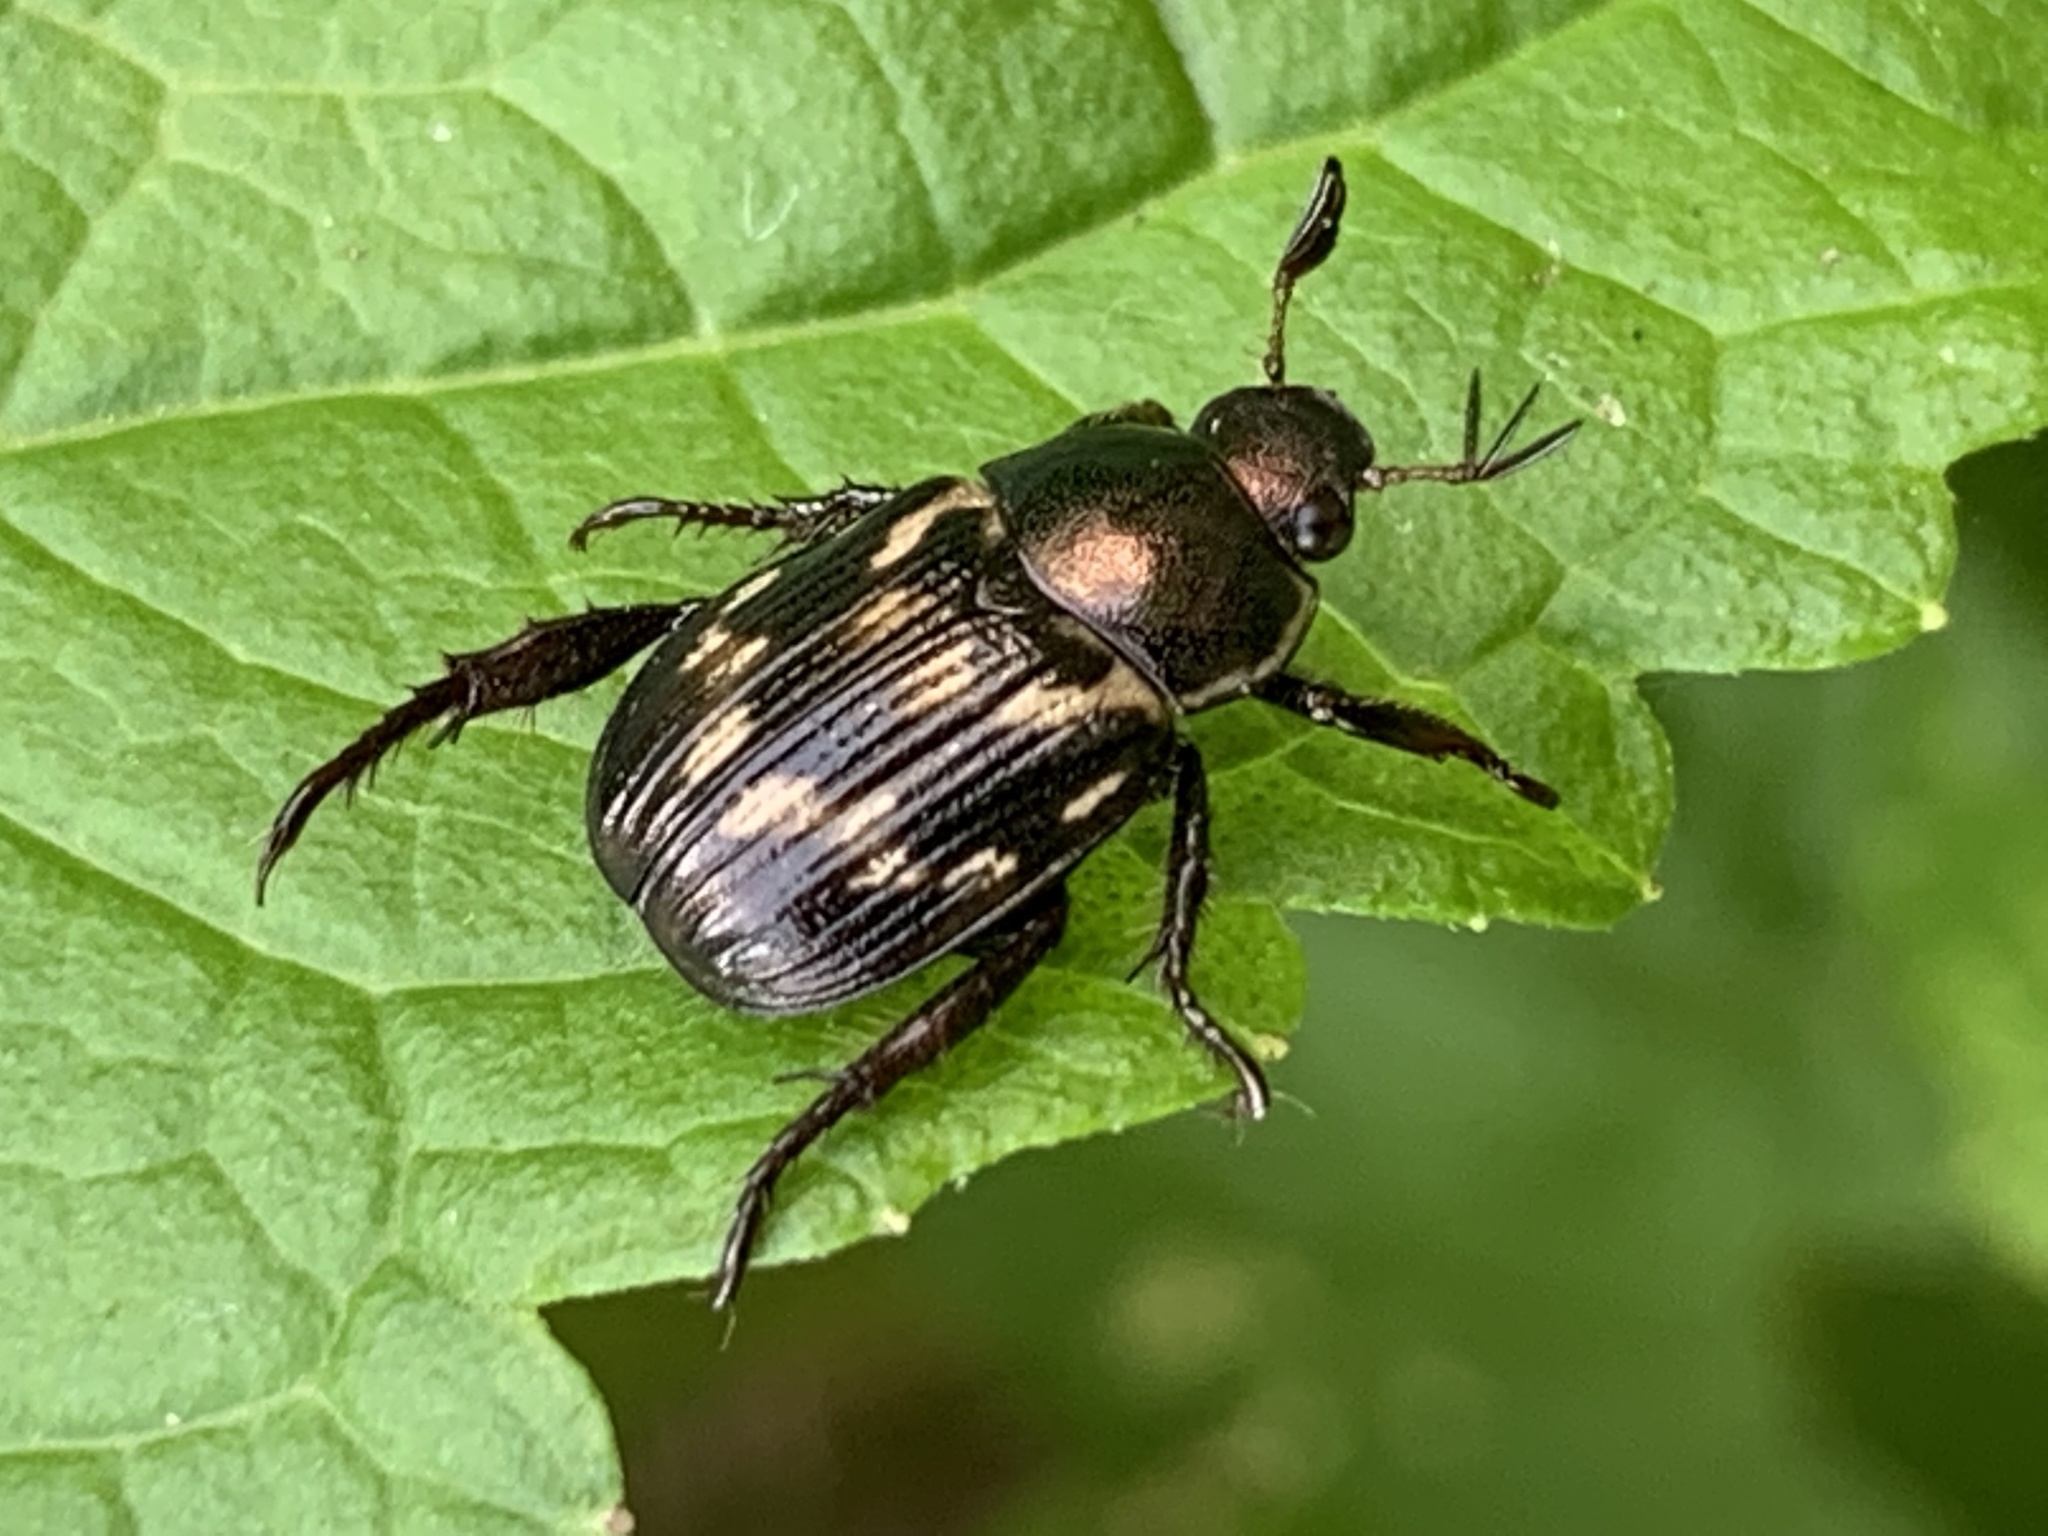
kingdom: Animalia
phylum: Arthropoda
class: Insecta
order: Coleoptera
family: Scarabaeidae
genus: Exomala
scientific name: Exomala orientalis
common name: Oriental beetle
